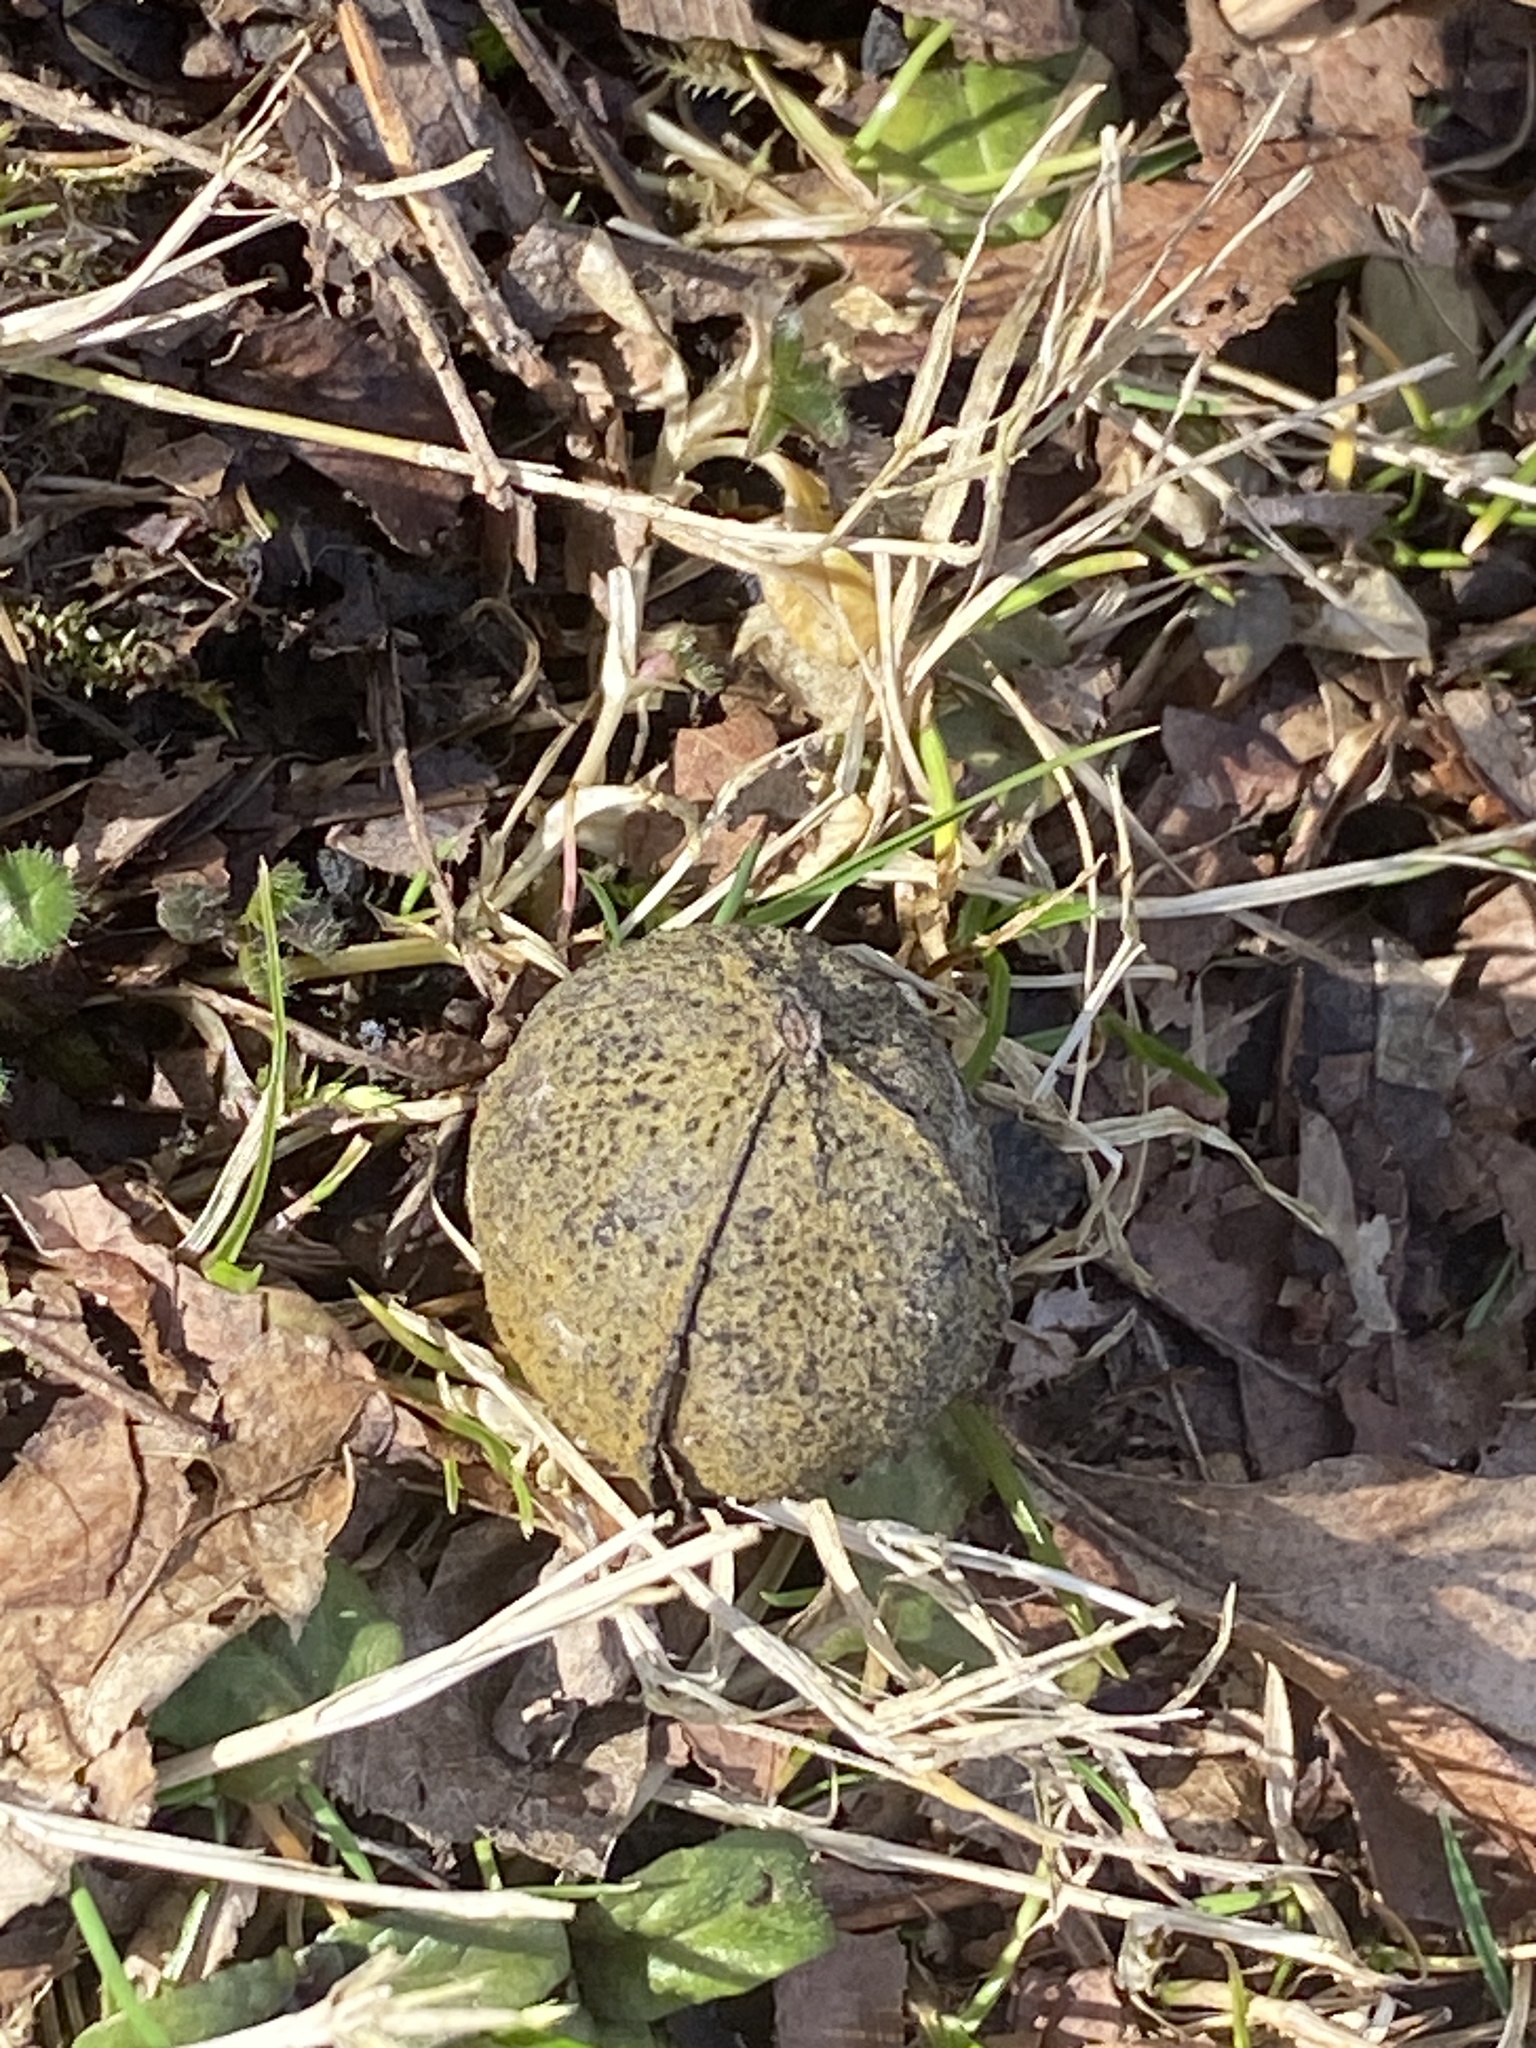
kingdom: Plantae
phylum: Tracheophyta
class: Magnoliopsida
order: Fagales
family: Juglandaceae
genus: Carya
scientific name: Carya cordiformis
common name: Bitternut hickory
